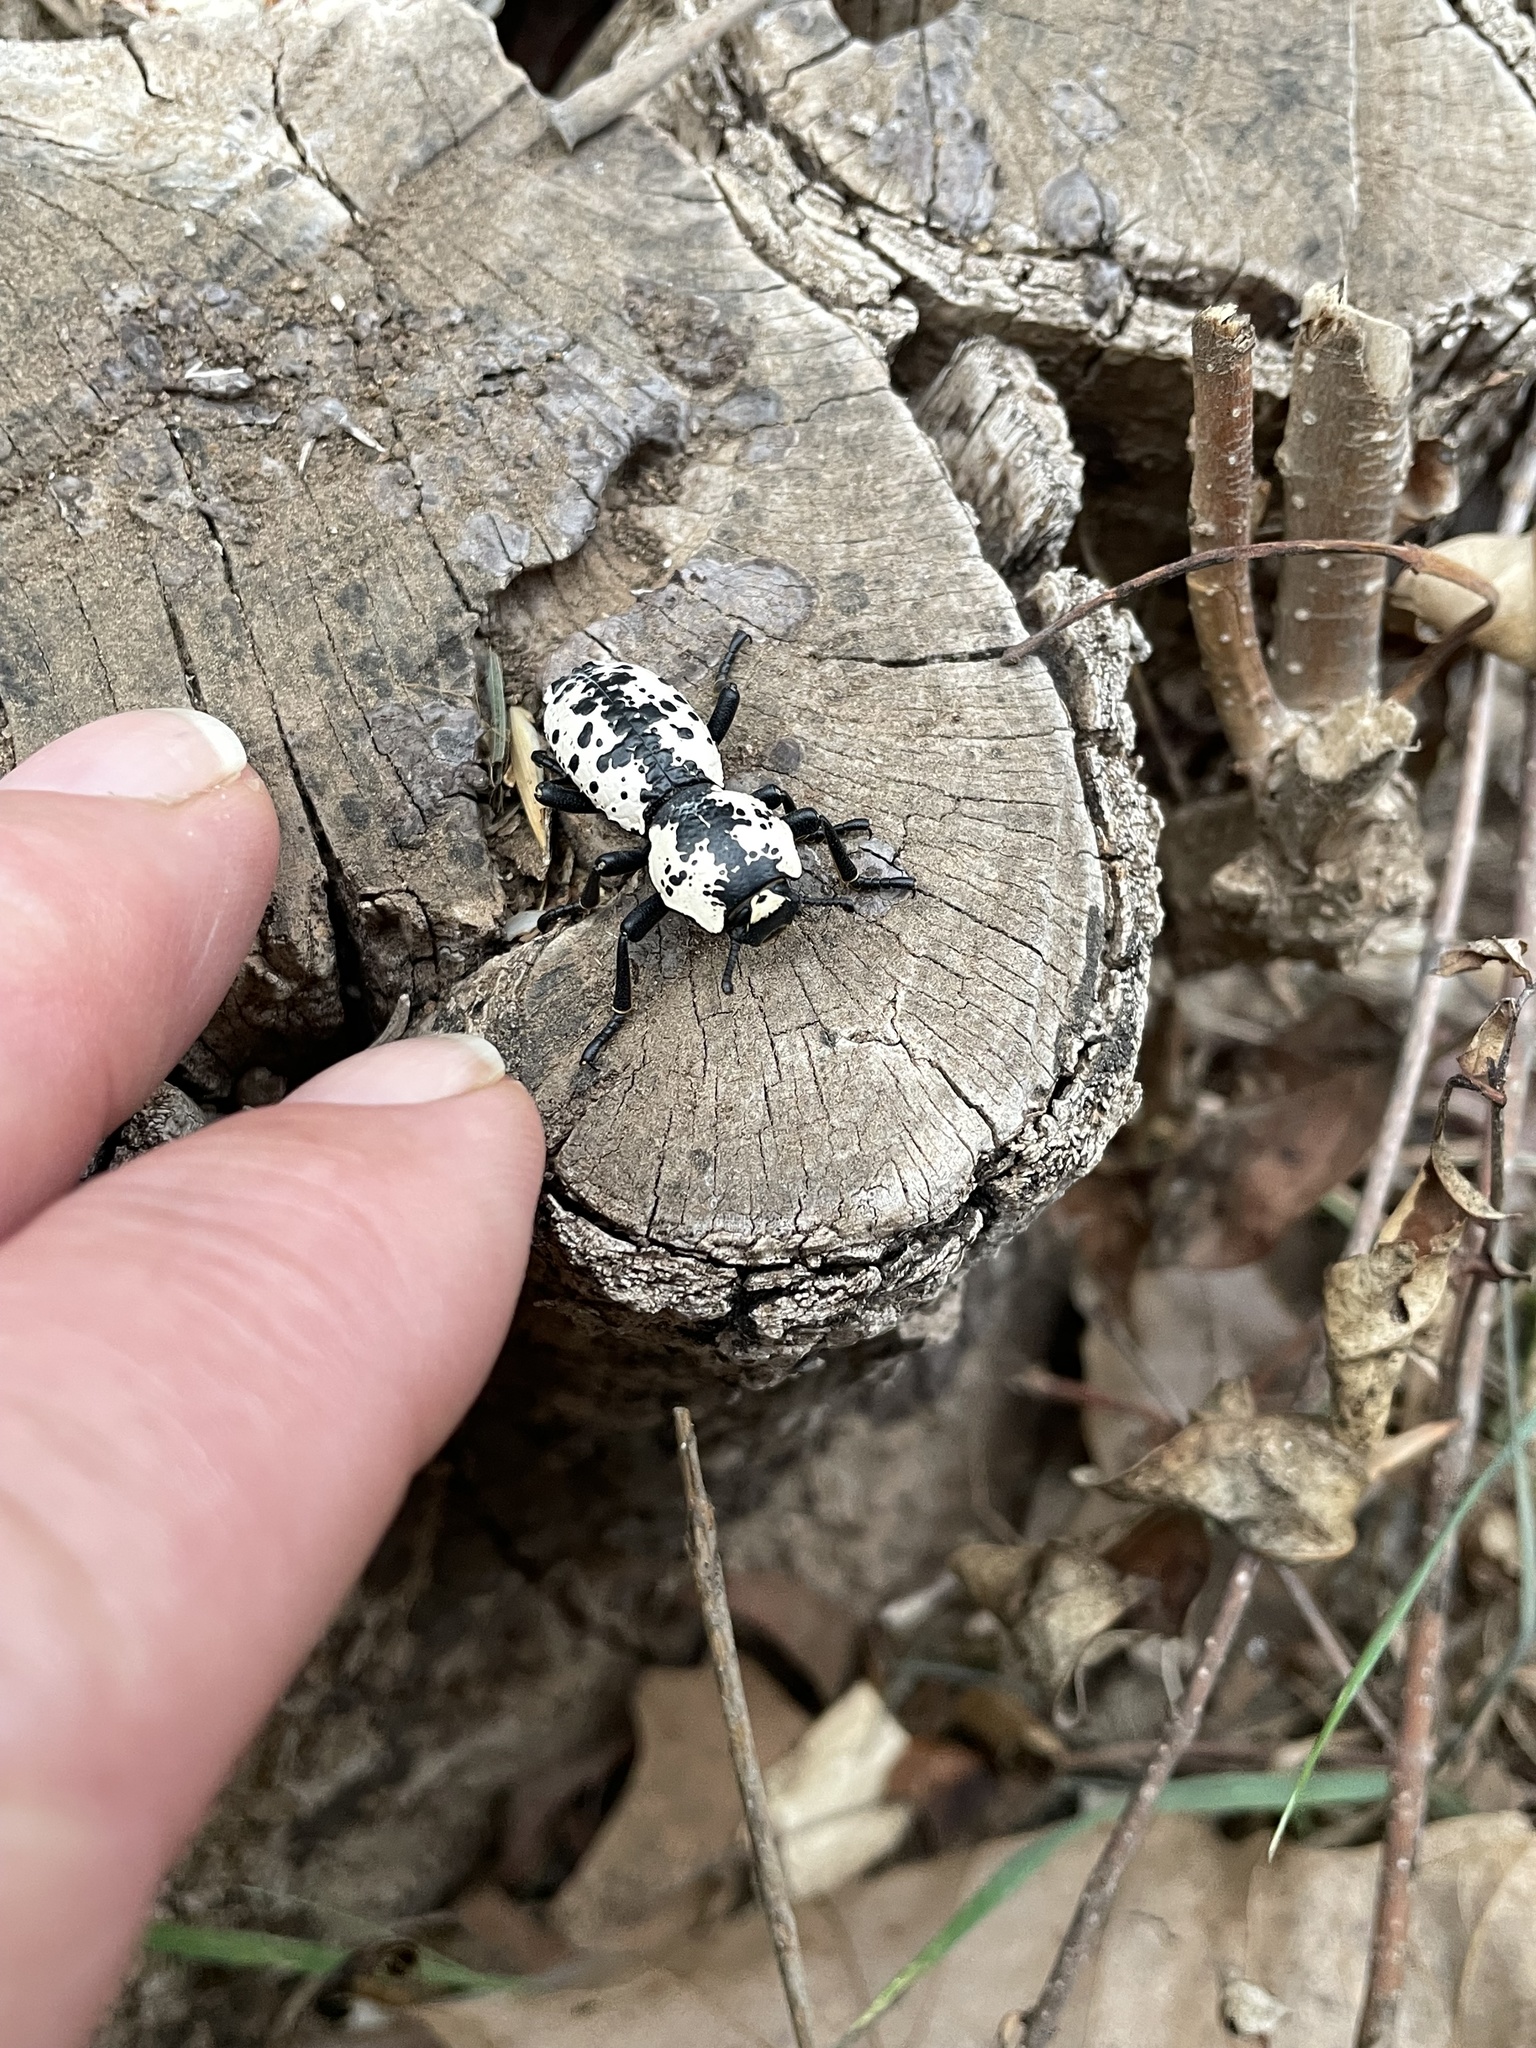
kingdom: Animalia
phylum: Arthropoda
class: Insecta
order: Coleoptera
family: Zopheridae
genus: Zopherus
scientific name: Zopherus nodulosus
